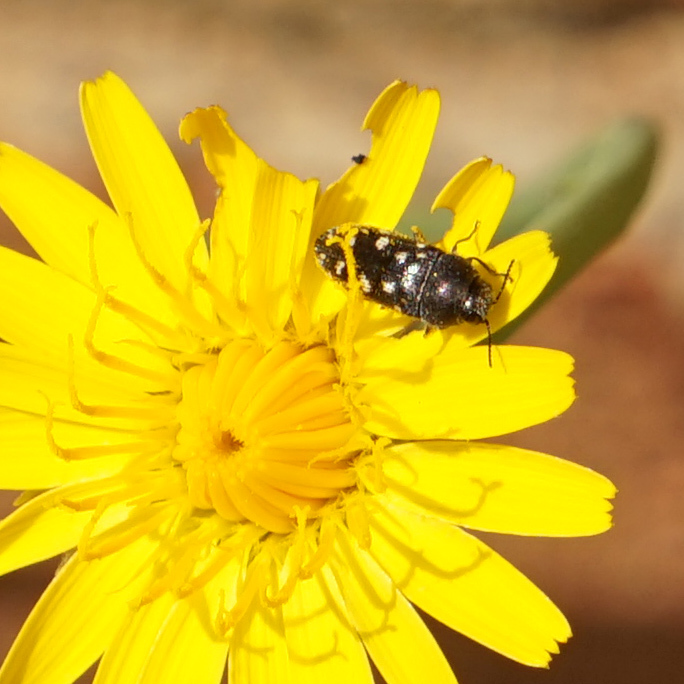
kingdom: Animalia
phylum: Arthropoda
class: Insecta
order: Coleoptera
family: Buprestidae
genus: Acmaeodera
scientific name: Acmaeodera tubulus
